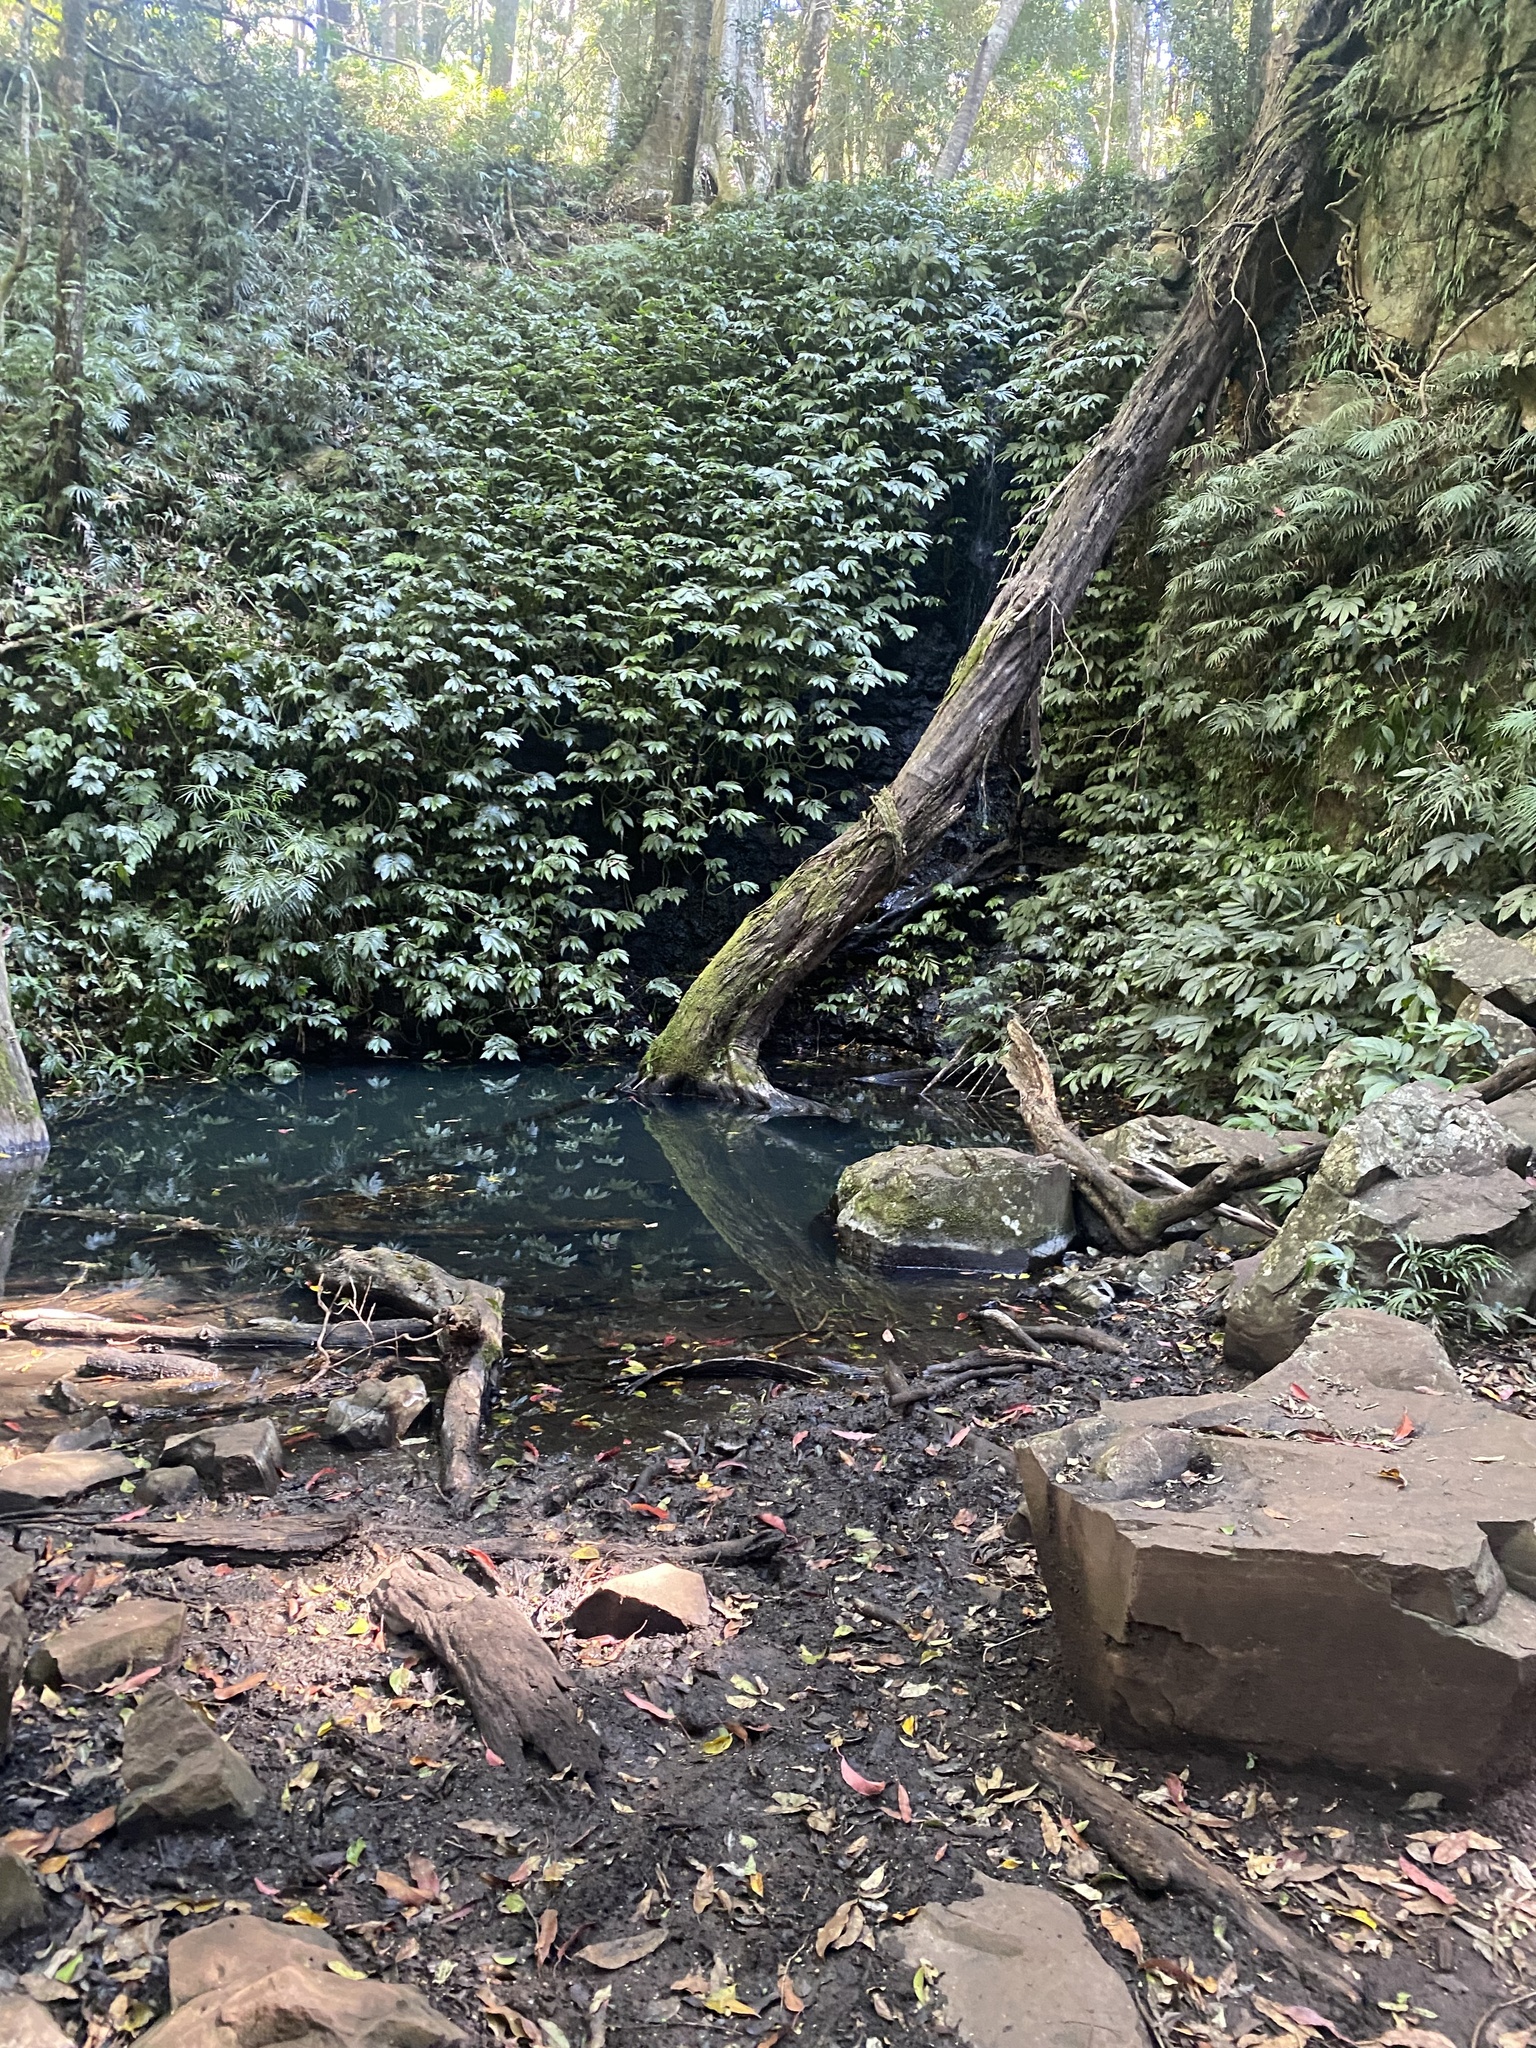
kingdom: Plantae
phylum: Tracheophyta
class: Magnoliopsida
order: Rosales
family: Urticaceae
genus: Elatostema
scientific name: Elatostema reticulatum
